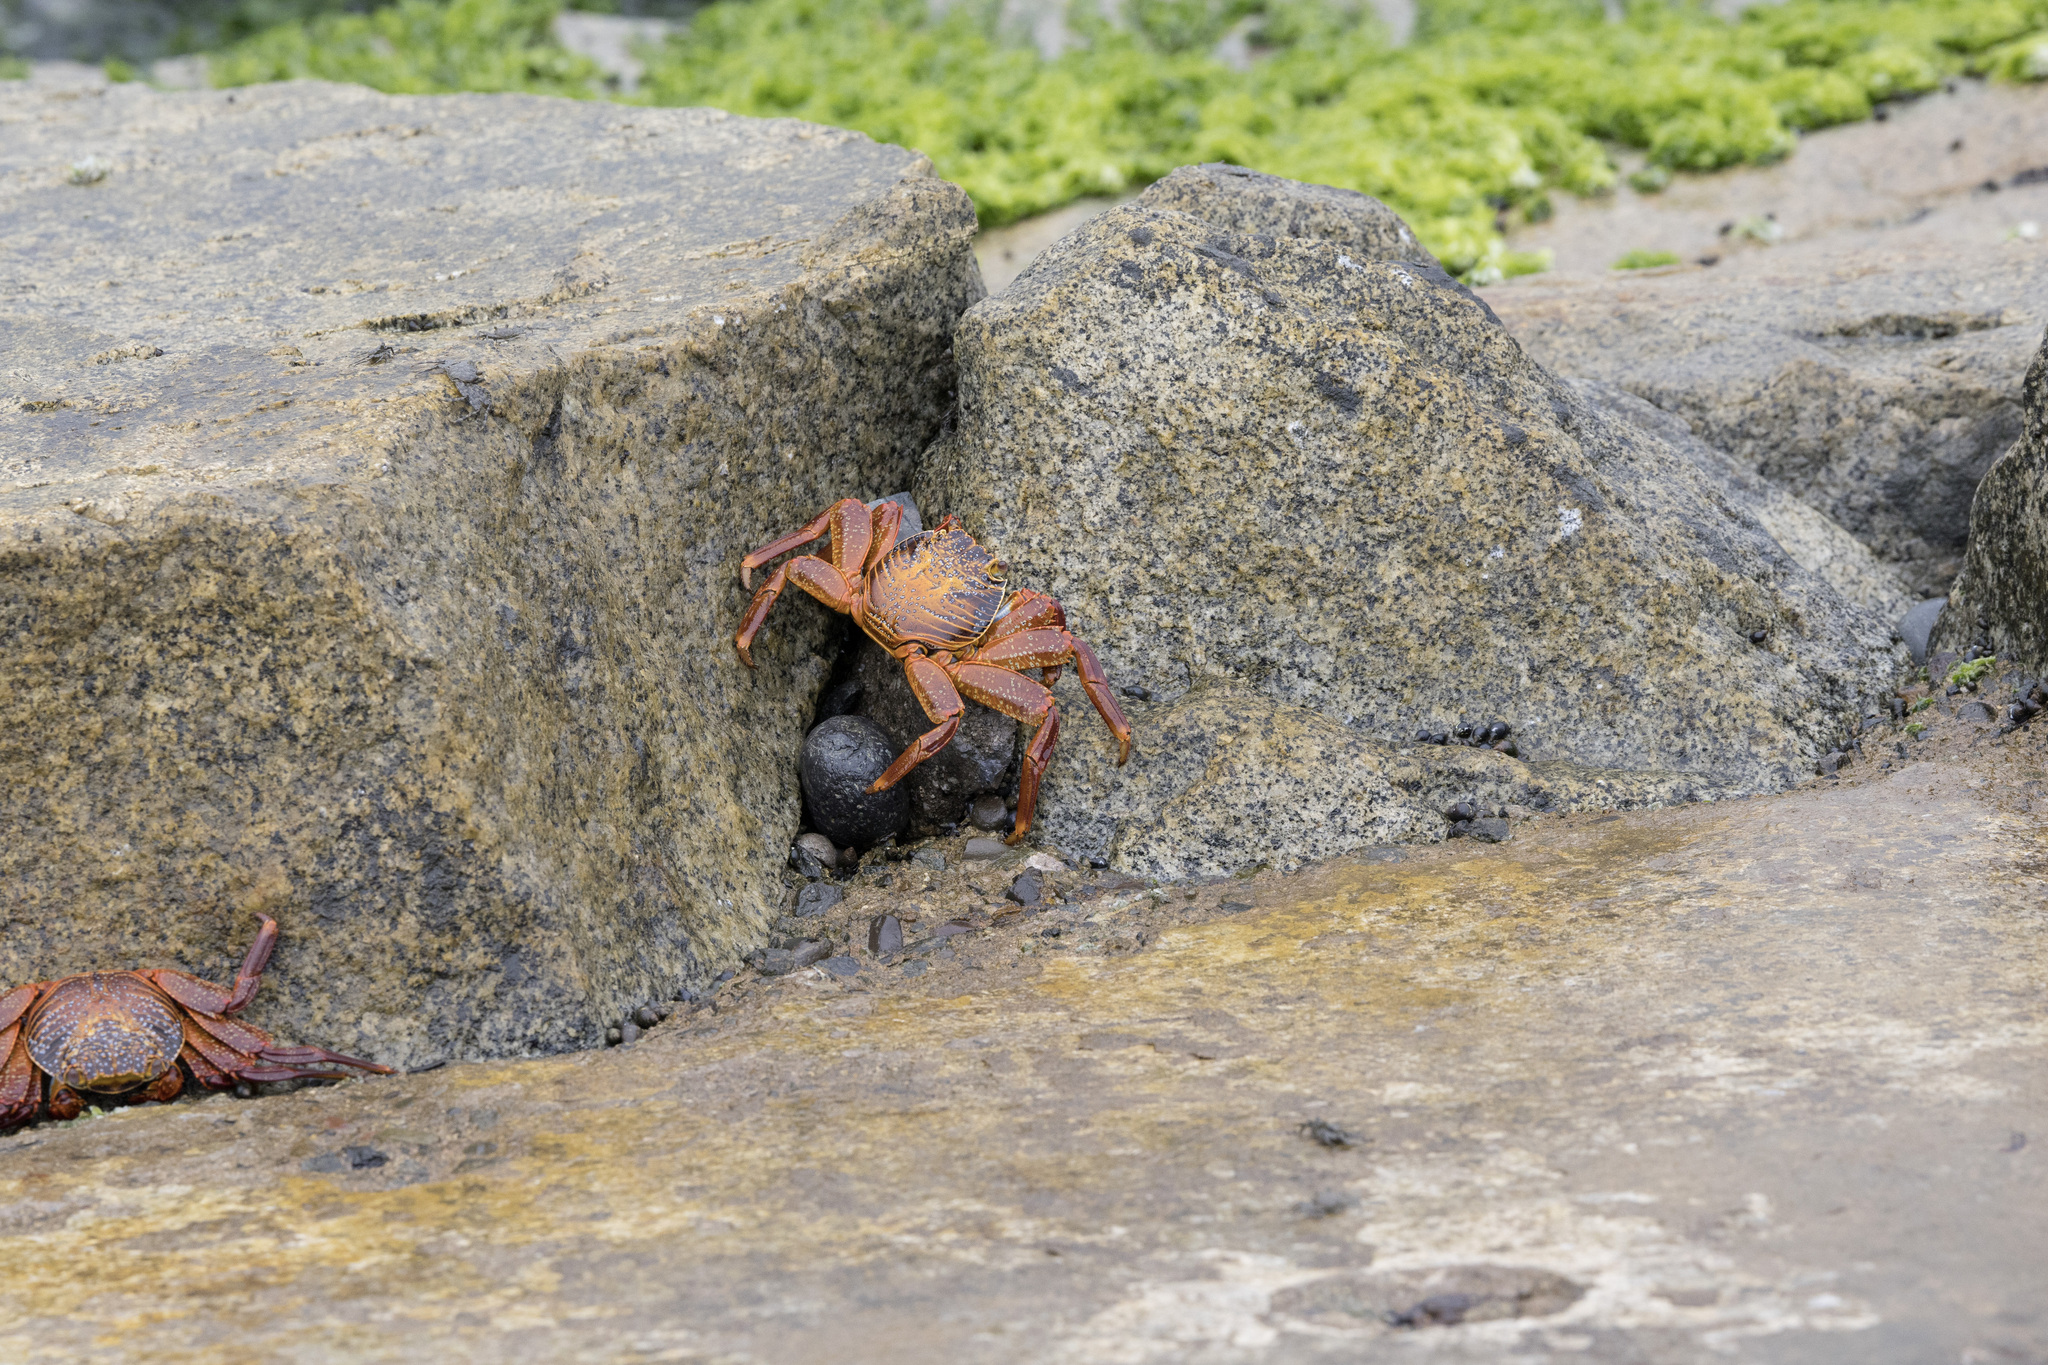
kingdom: Animalia
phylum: Arthropoda
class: Malacostraca
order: Decapoda
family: Grapsidae
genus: Grapsus
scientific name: Grapsus grapsus
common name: Sally lightfoot
